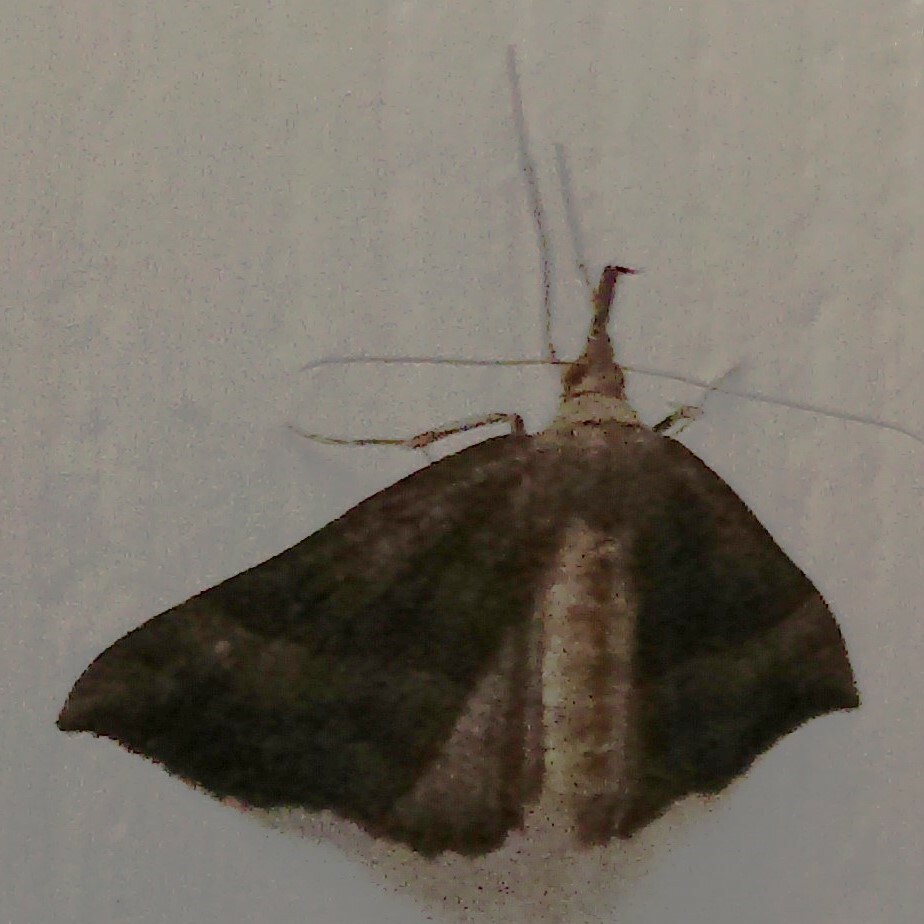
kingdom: Animalia
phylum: Arthropoda
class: Insecta
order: Lepidoptera
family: Erebidae
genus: Hypena
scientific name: Hypena proboscidalis
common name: Snout
